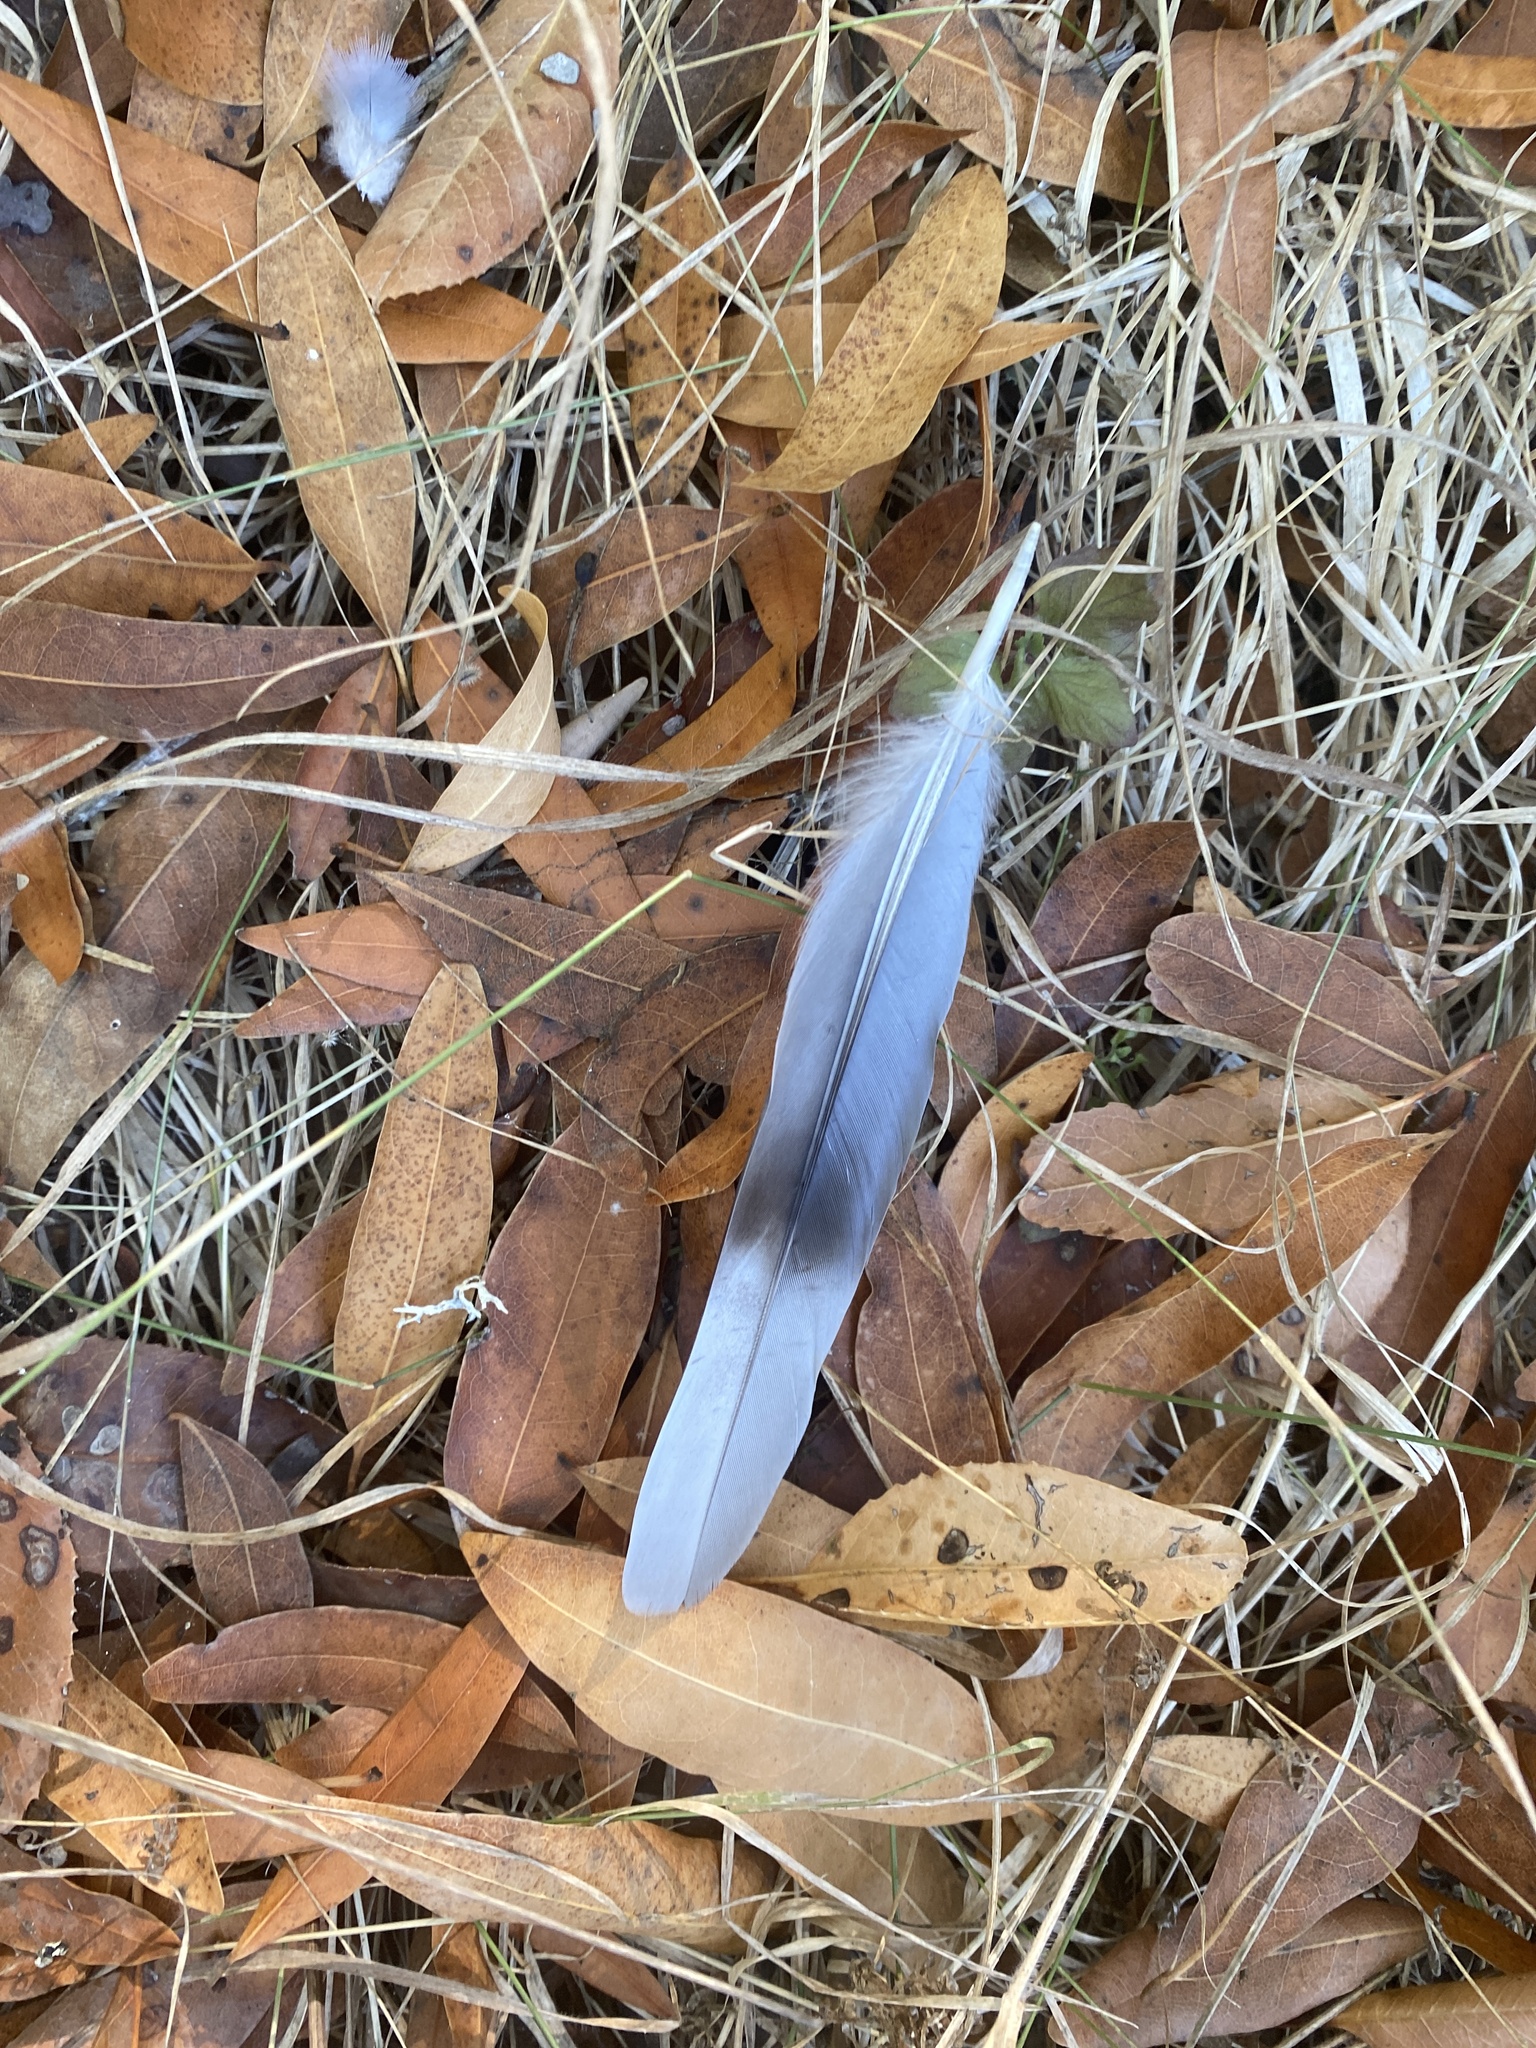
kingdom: Animalia
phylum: Chordata
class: Aves
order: Columbiformes
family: Columbidae
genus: Patagioenas
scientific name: Patagioenas fasciata
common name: Band-tailed pigeon
